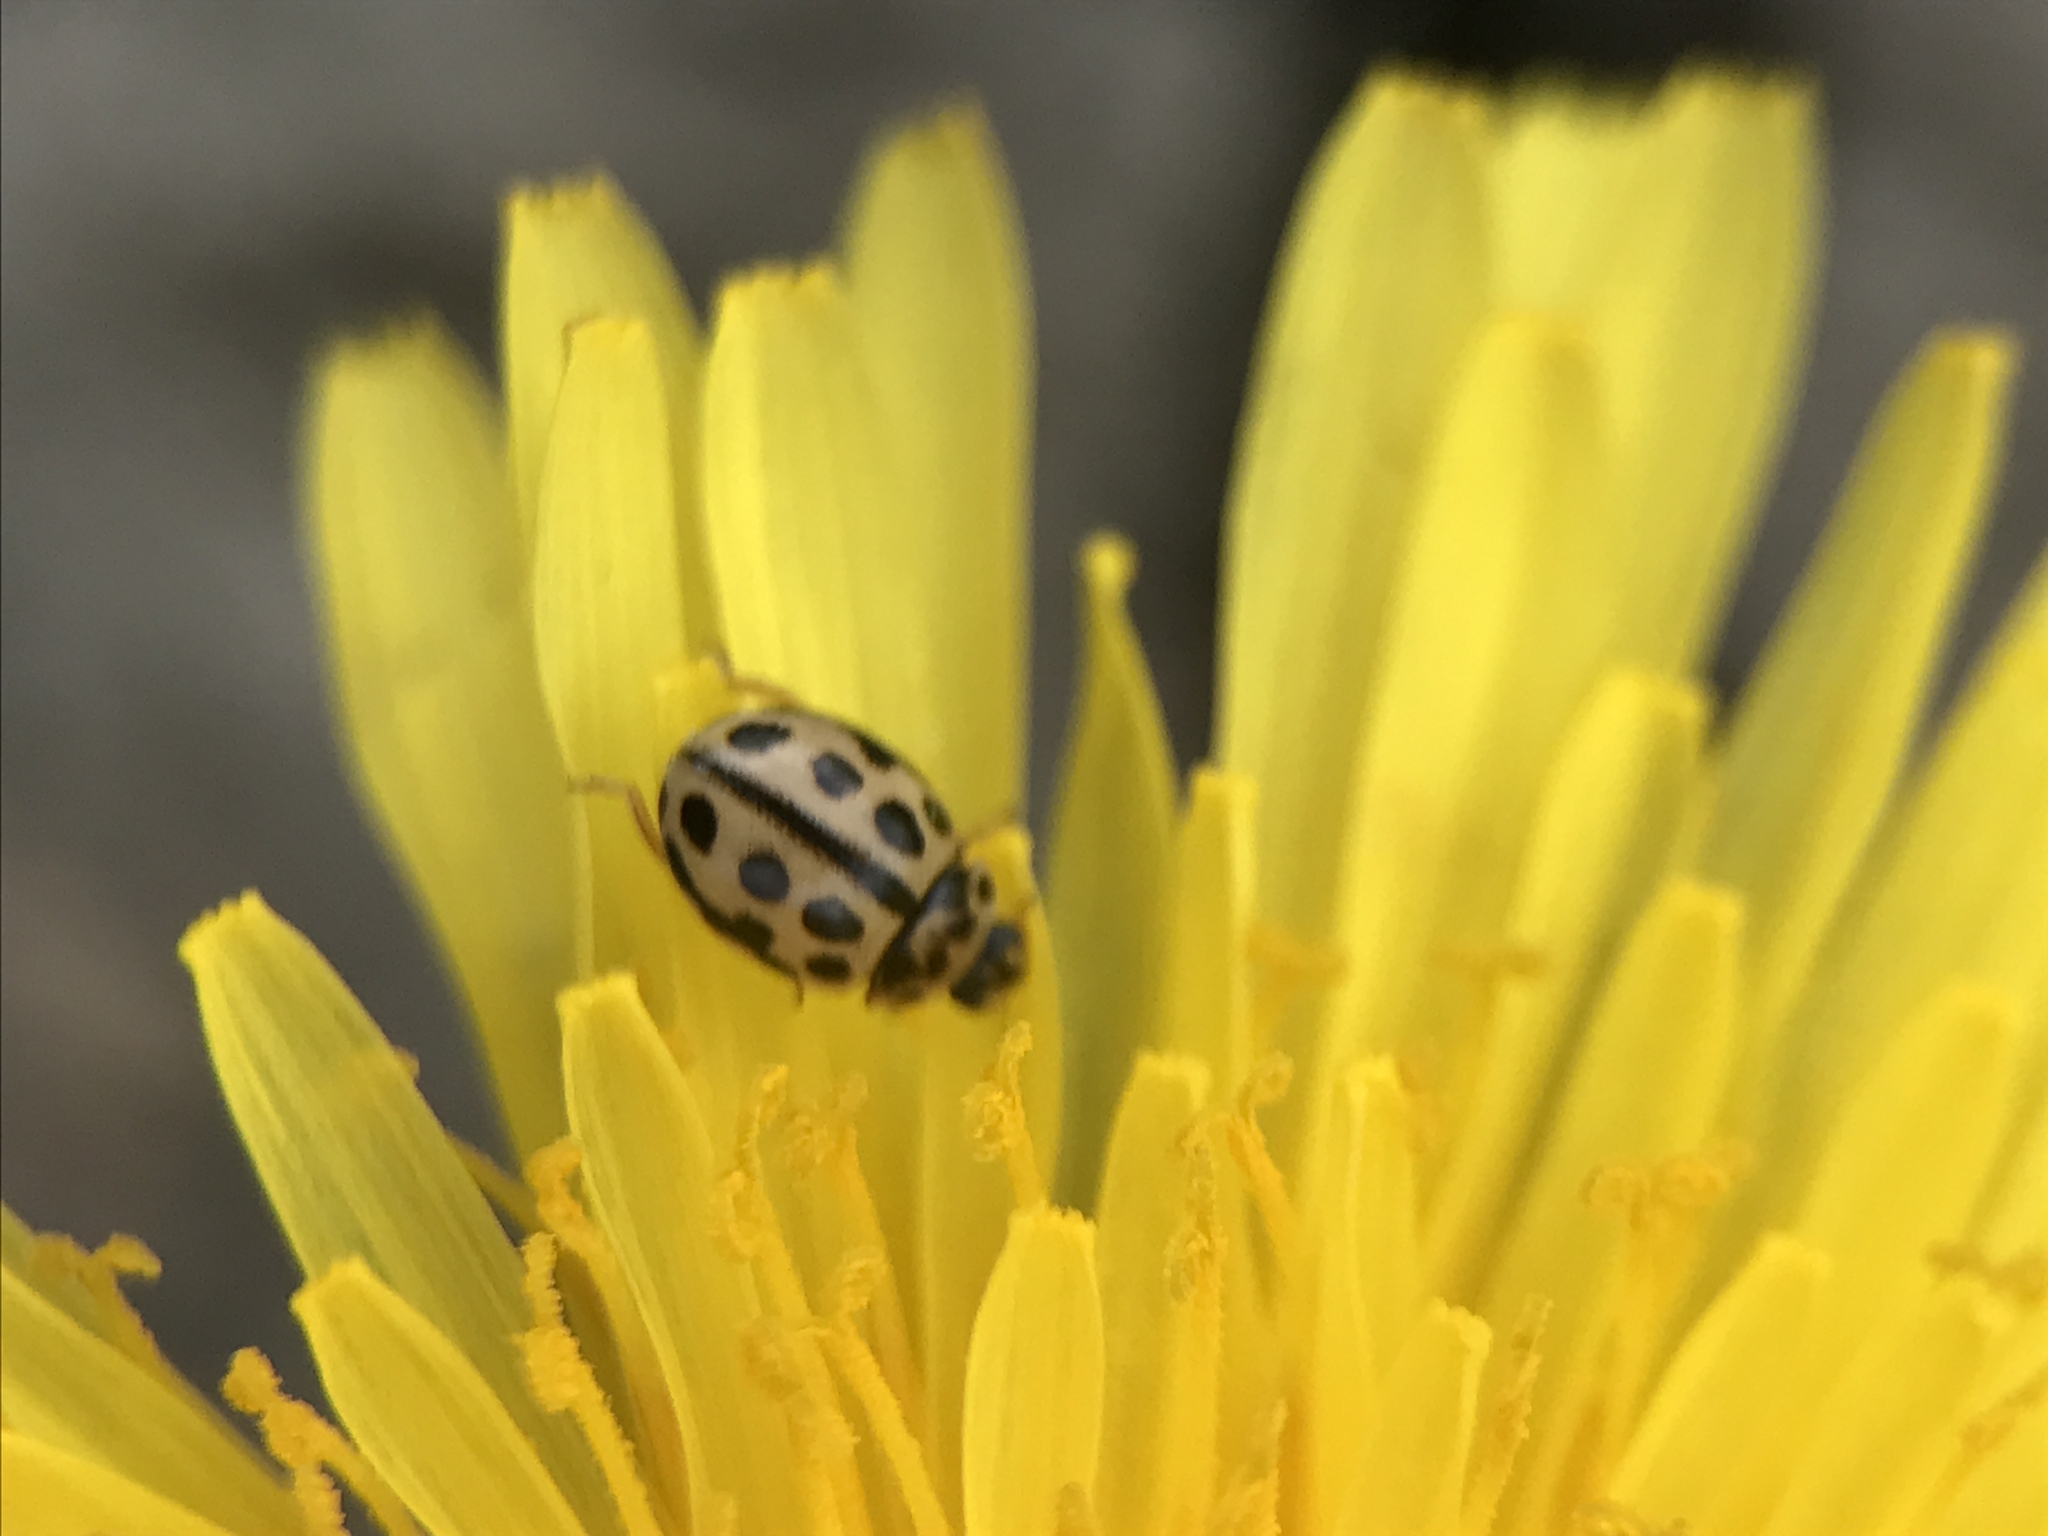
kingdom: Animalia
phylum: Arthropoda
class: Insecta
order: Coleoptera
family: Coccinellidae
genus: Tytthaspis
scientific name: Tytthaspis sedecimpunctata
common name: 16-spot ladybird
